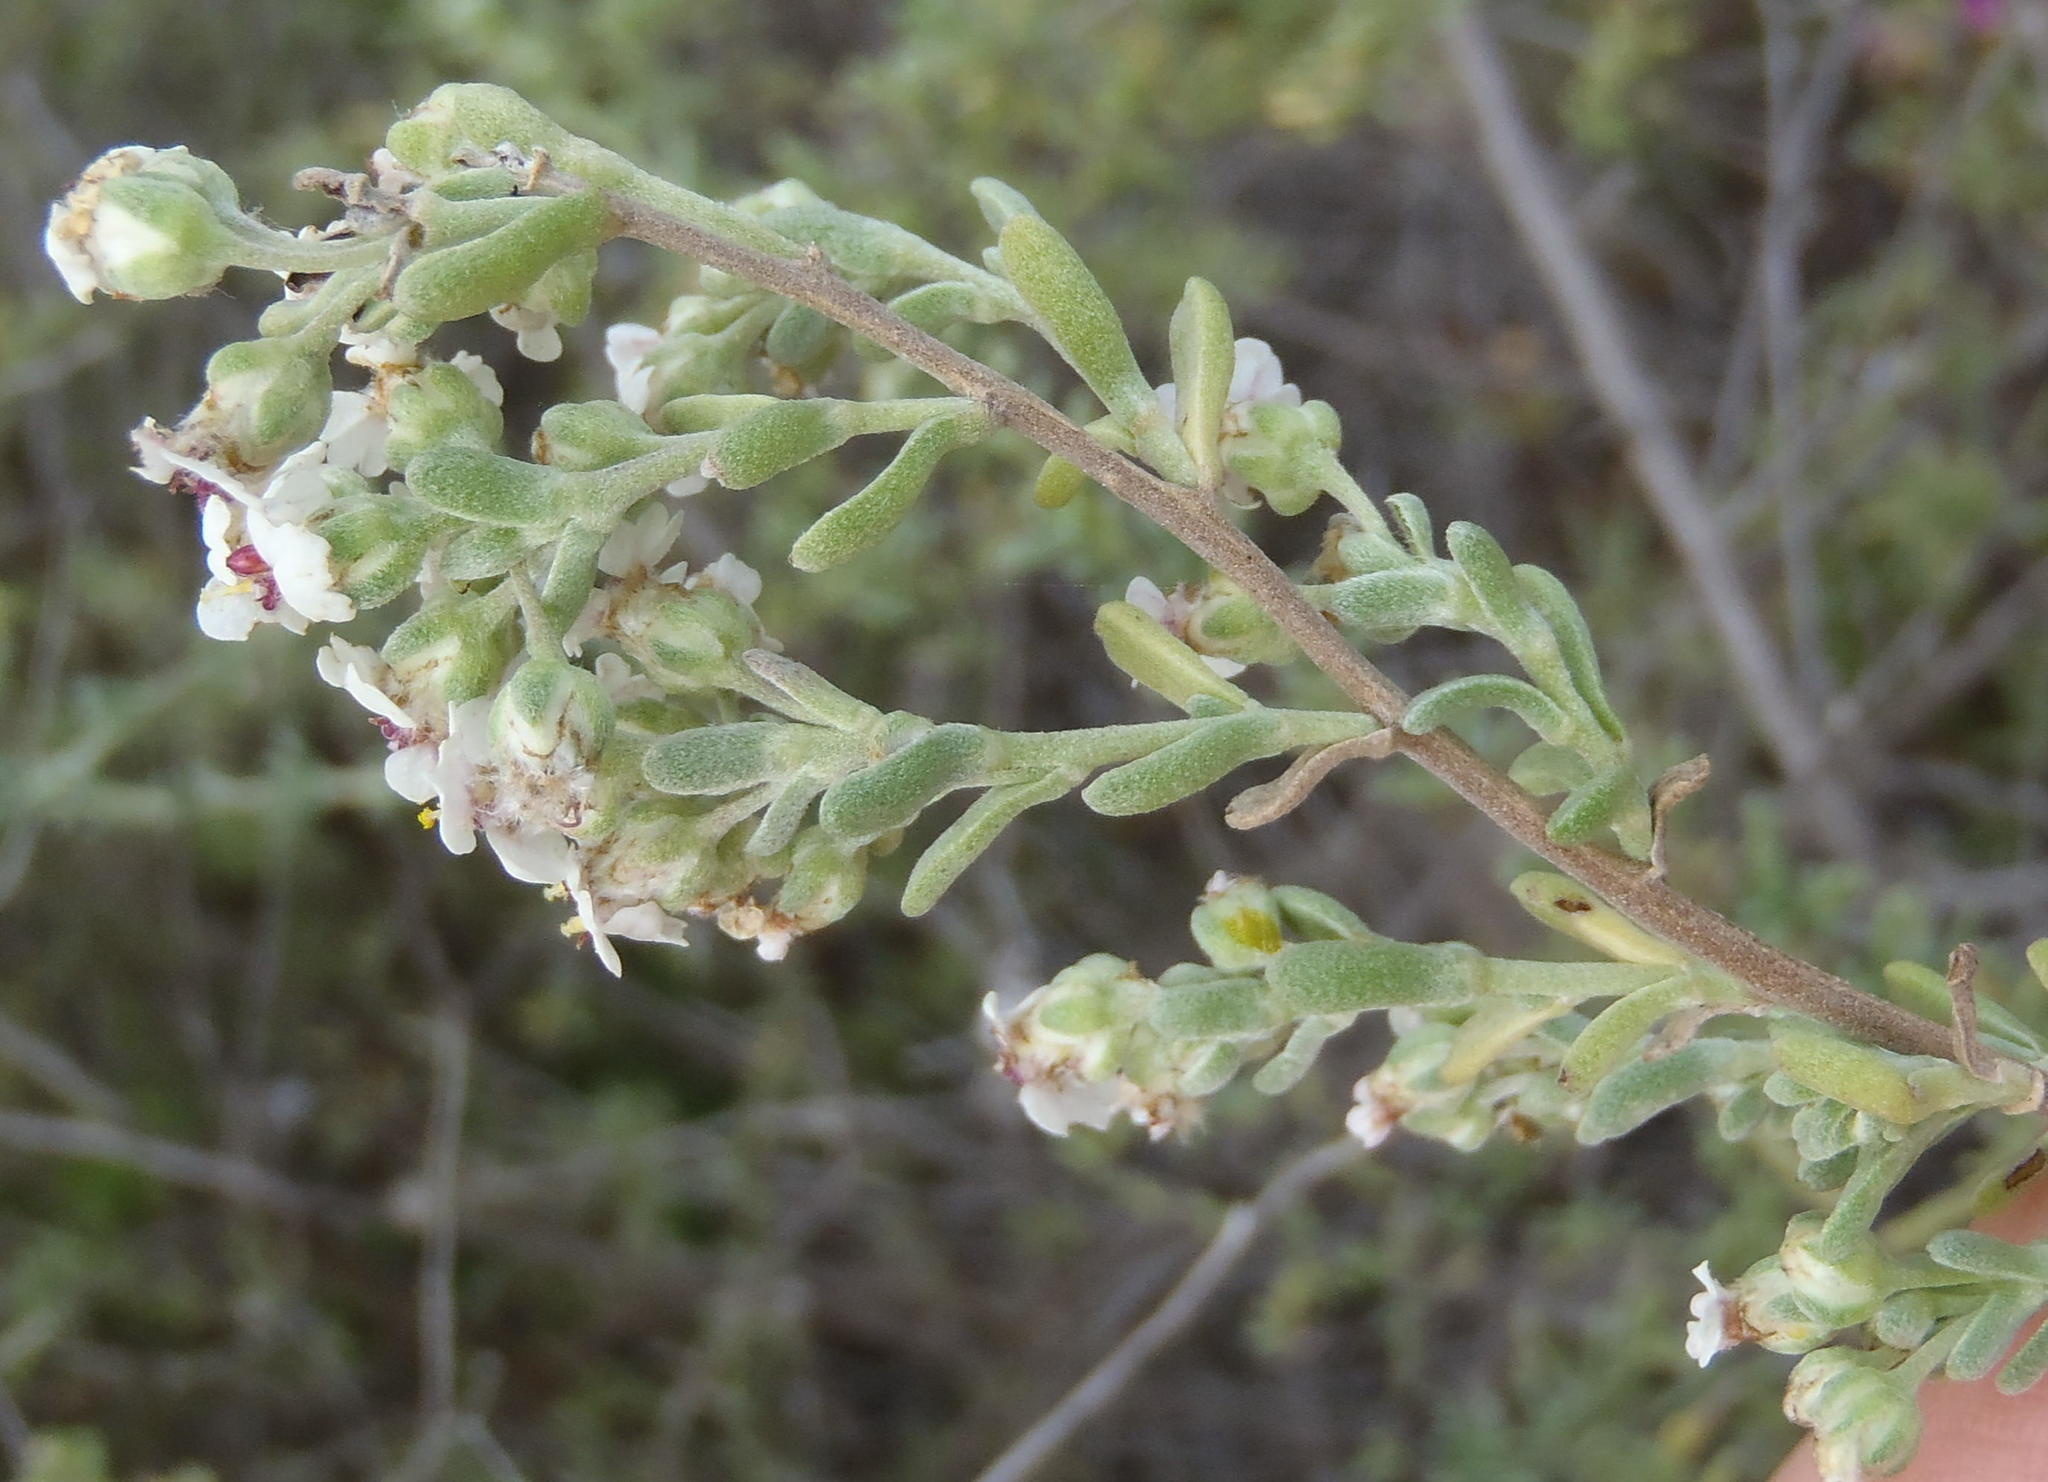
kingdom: Plantae
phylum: Tracheophyta
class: Magnoliopsida
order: Asterales
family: Asteraceae
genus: Eriocephalus
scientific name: Eriocephalus africanus
